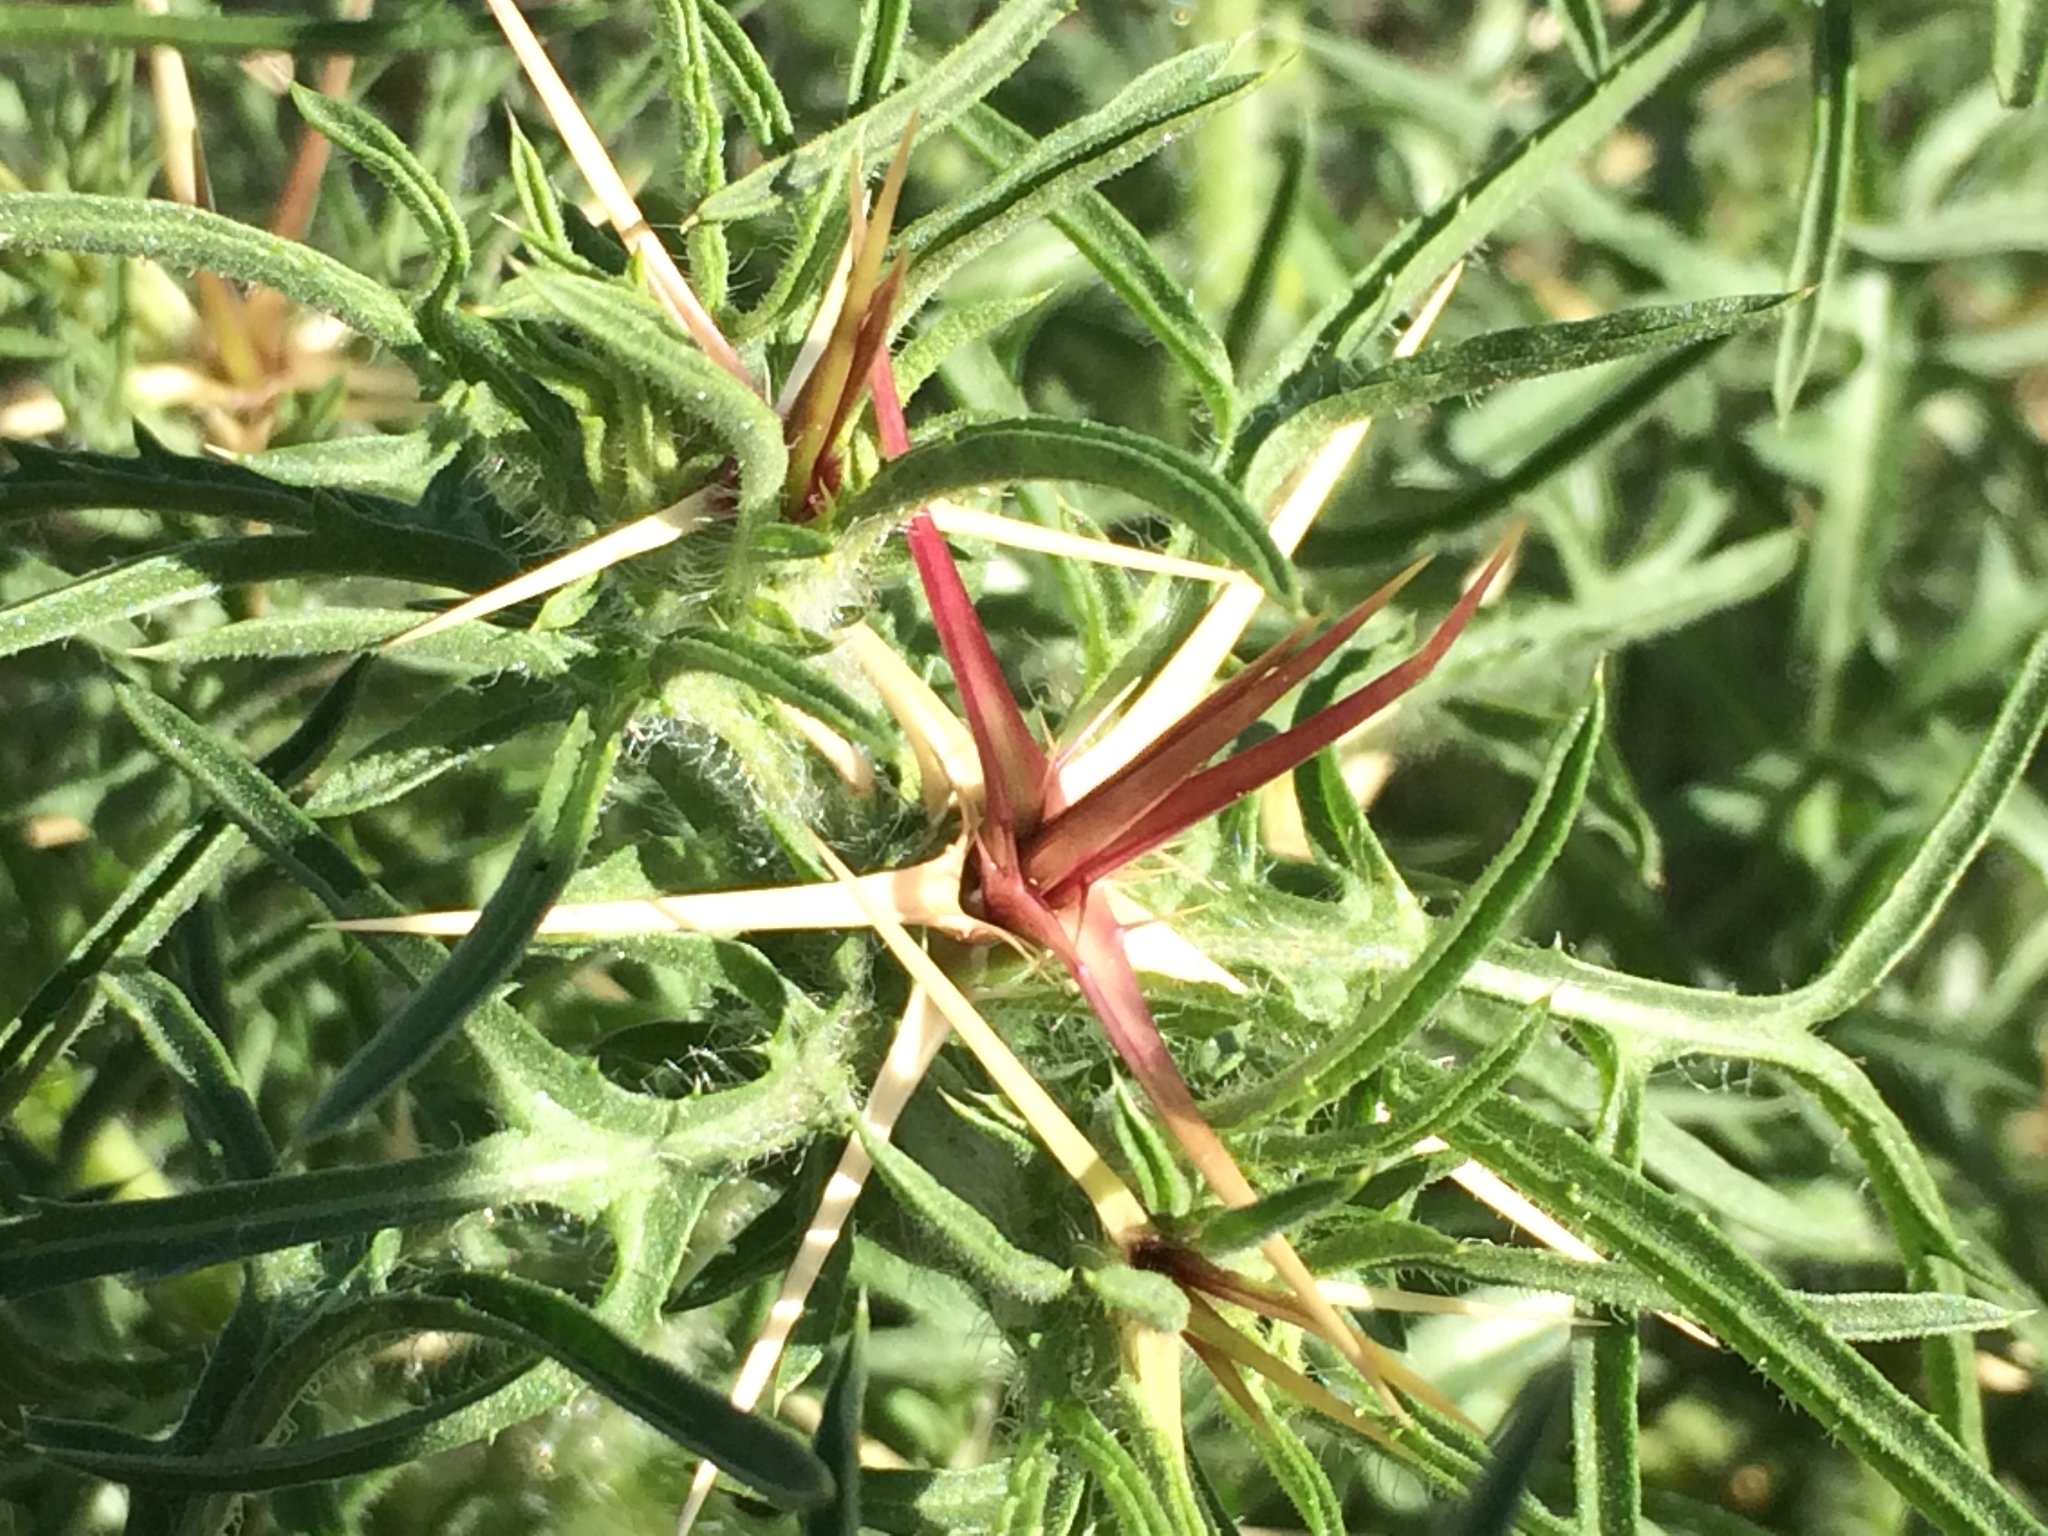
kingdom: Plantae
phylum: Tracheophyta
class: Magnoliopsida
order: Asterales
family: Asteraceae
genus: Centaurea
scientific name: Centaurea calcitrapa
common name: Red star-thistle
